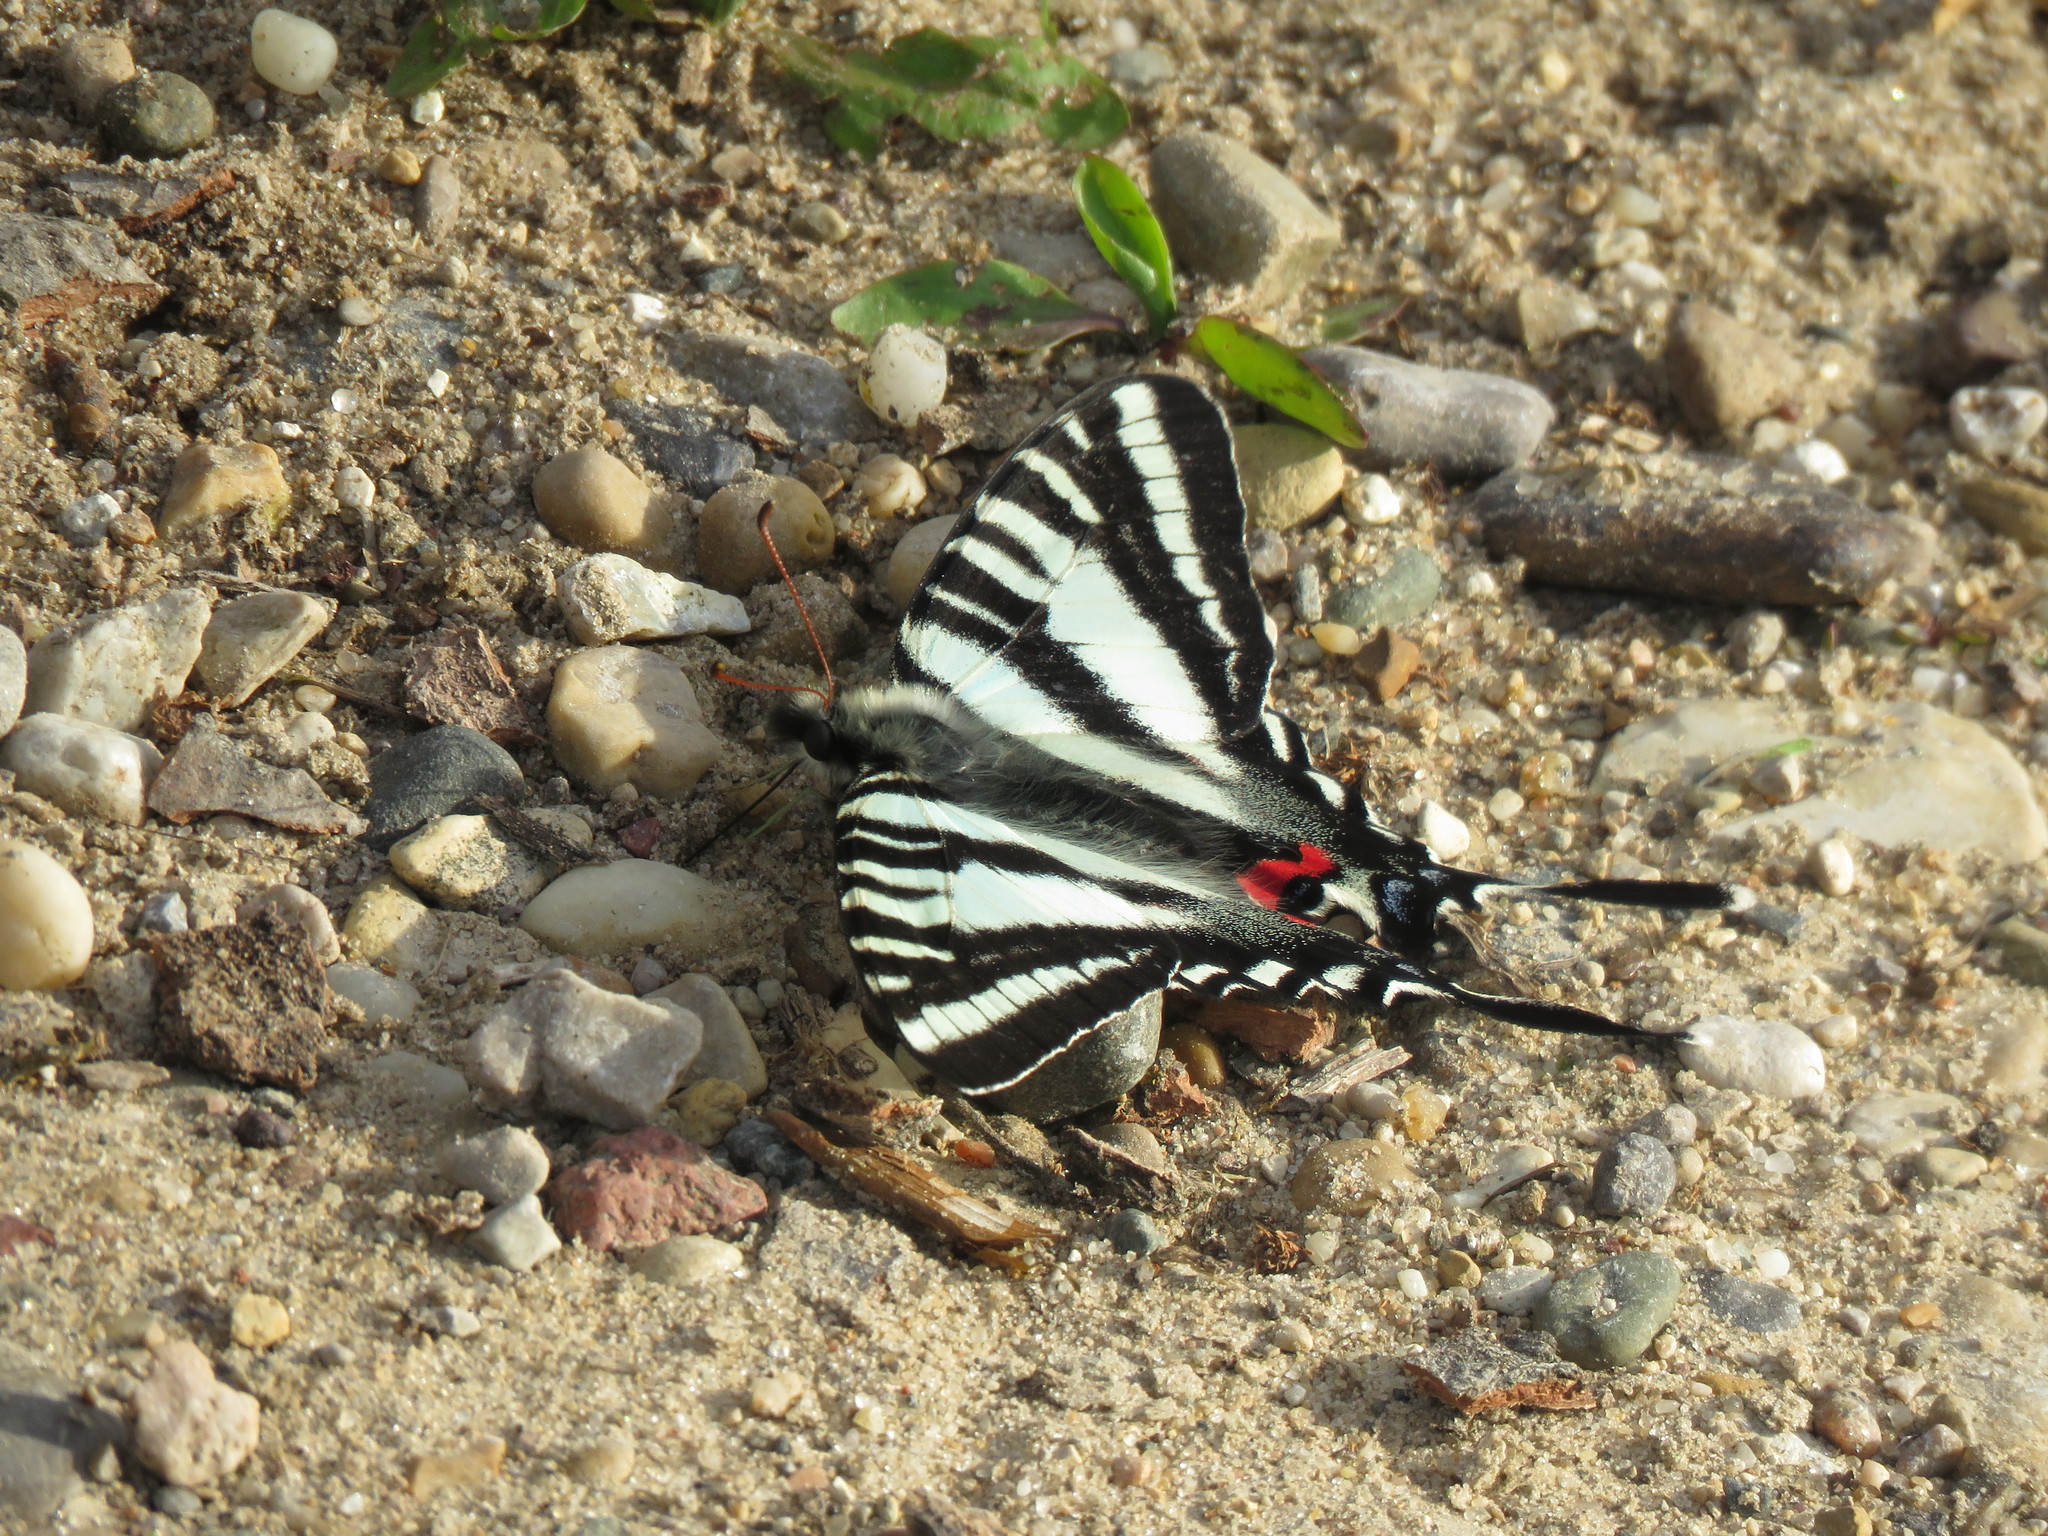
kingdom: Animalia
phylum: Arthropoda
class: Insecta
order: Lepidoptera
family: Papilionidae
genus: Protographium
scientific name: Protographium marcellus
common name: Zebra swallowtail
